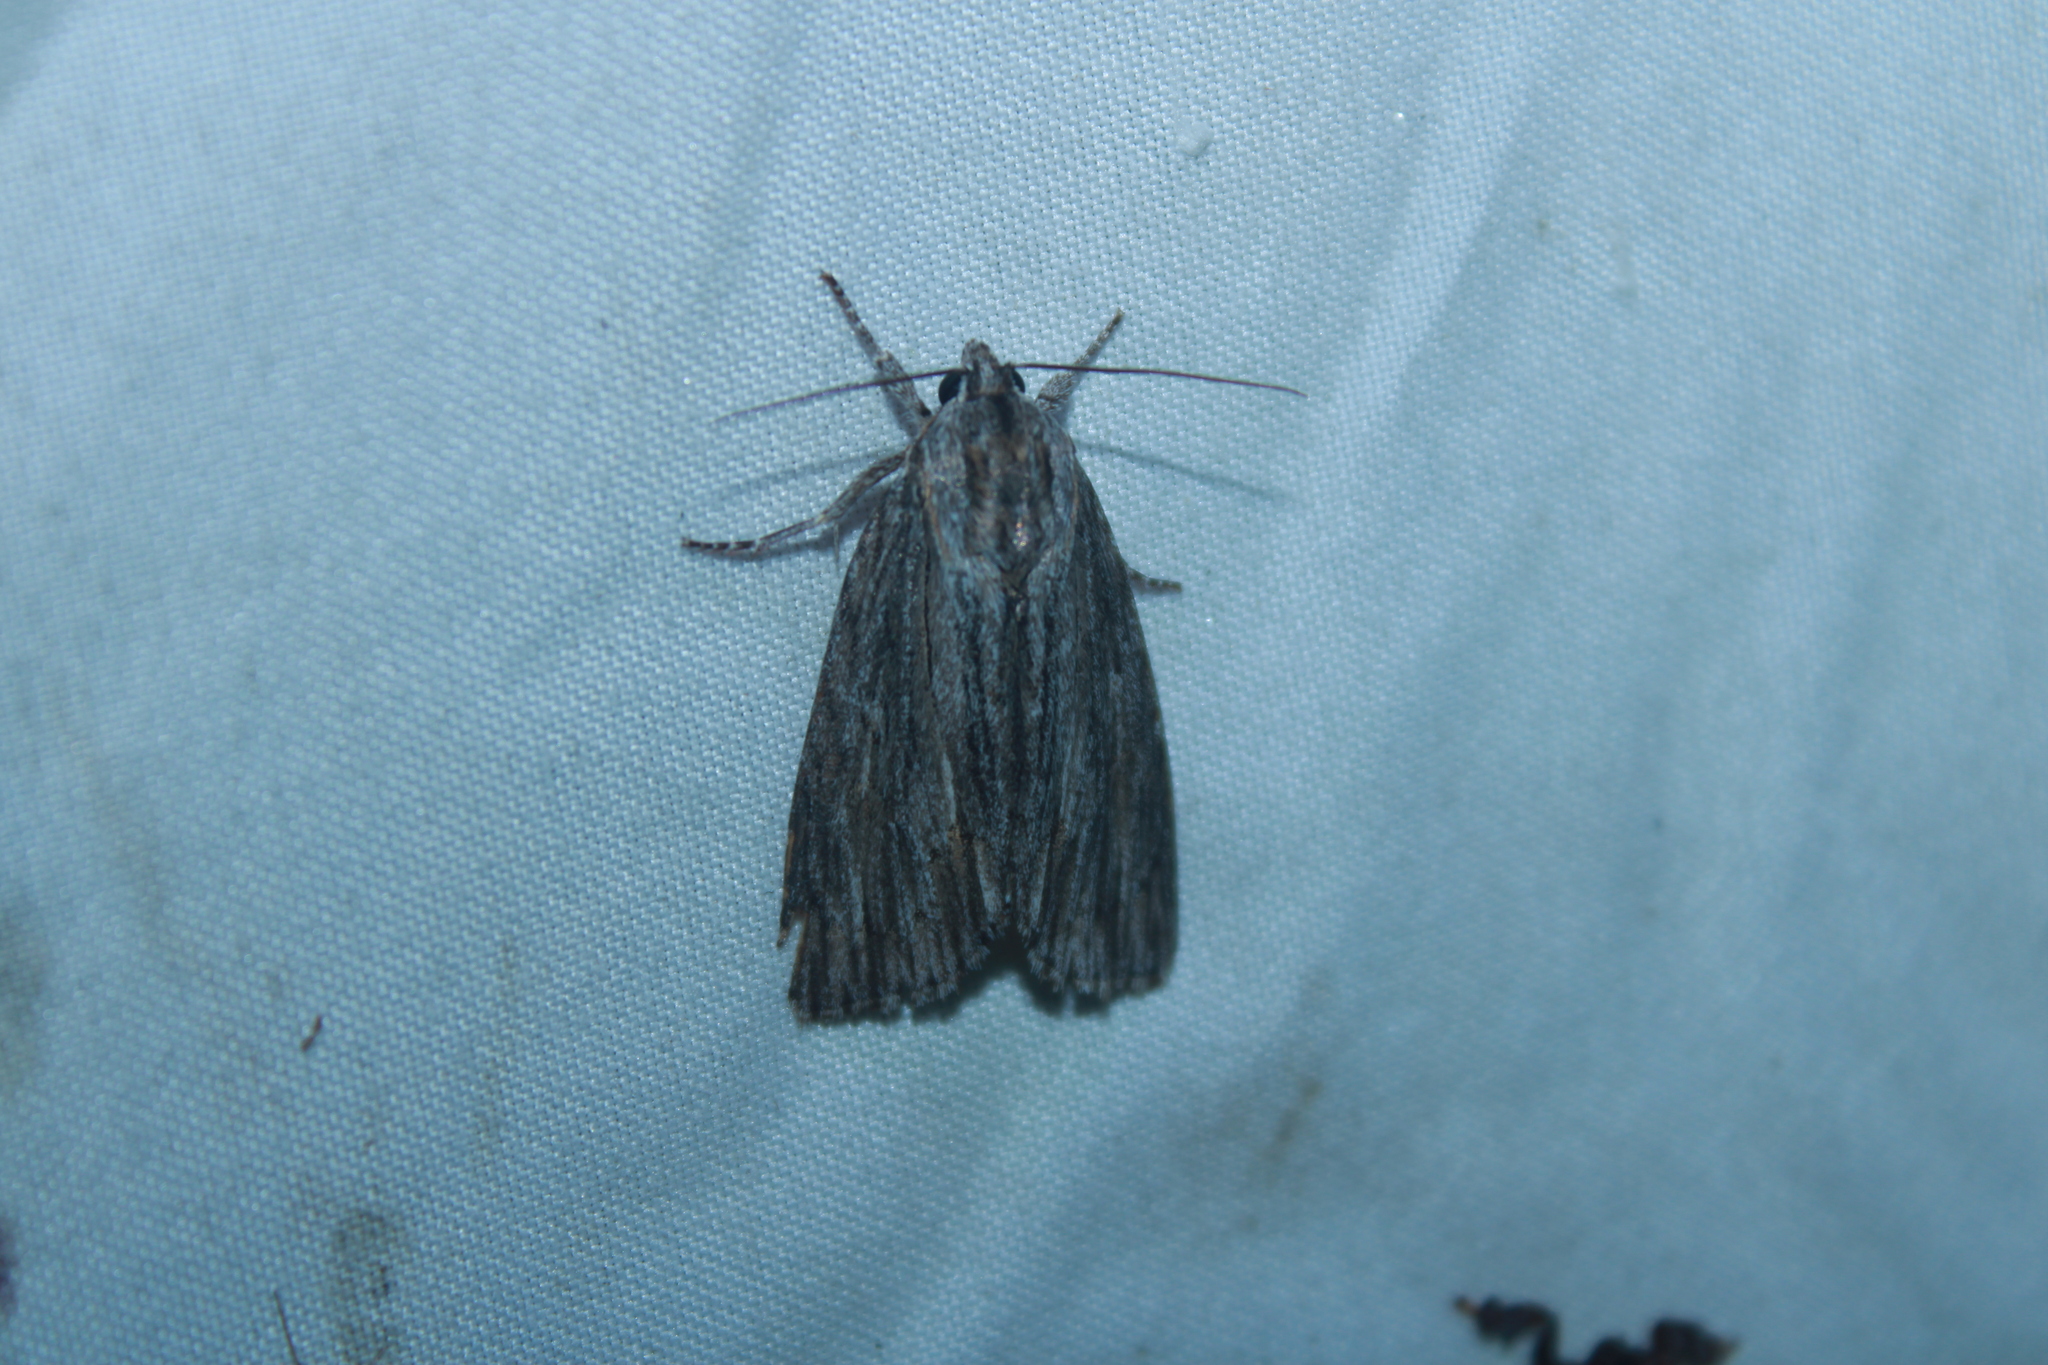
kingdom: Animalia
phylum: Arthropoda
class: Insecta
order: Lepidoptera
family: Noctuidae
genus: Acronicta
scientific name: Acronicta lithospila
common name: Streaked dagger
